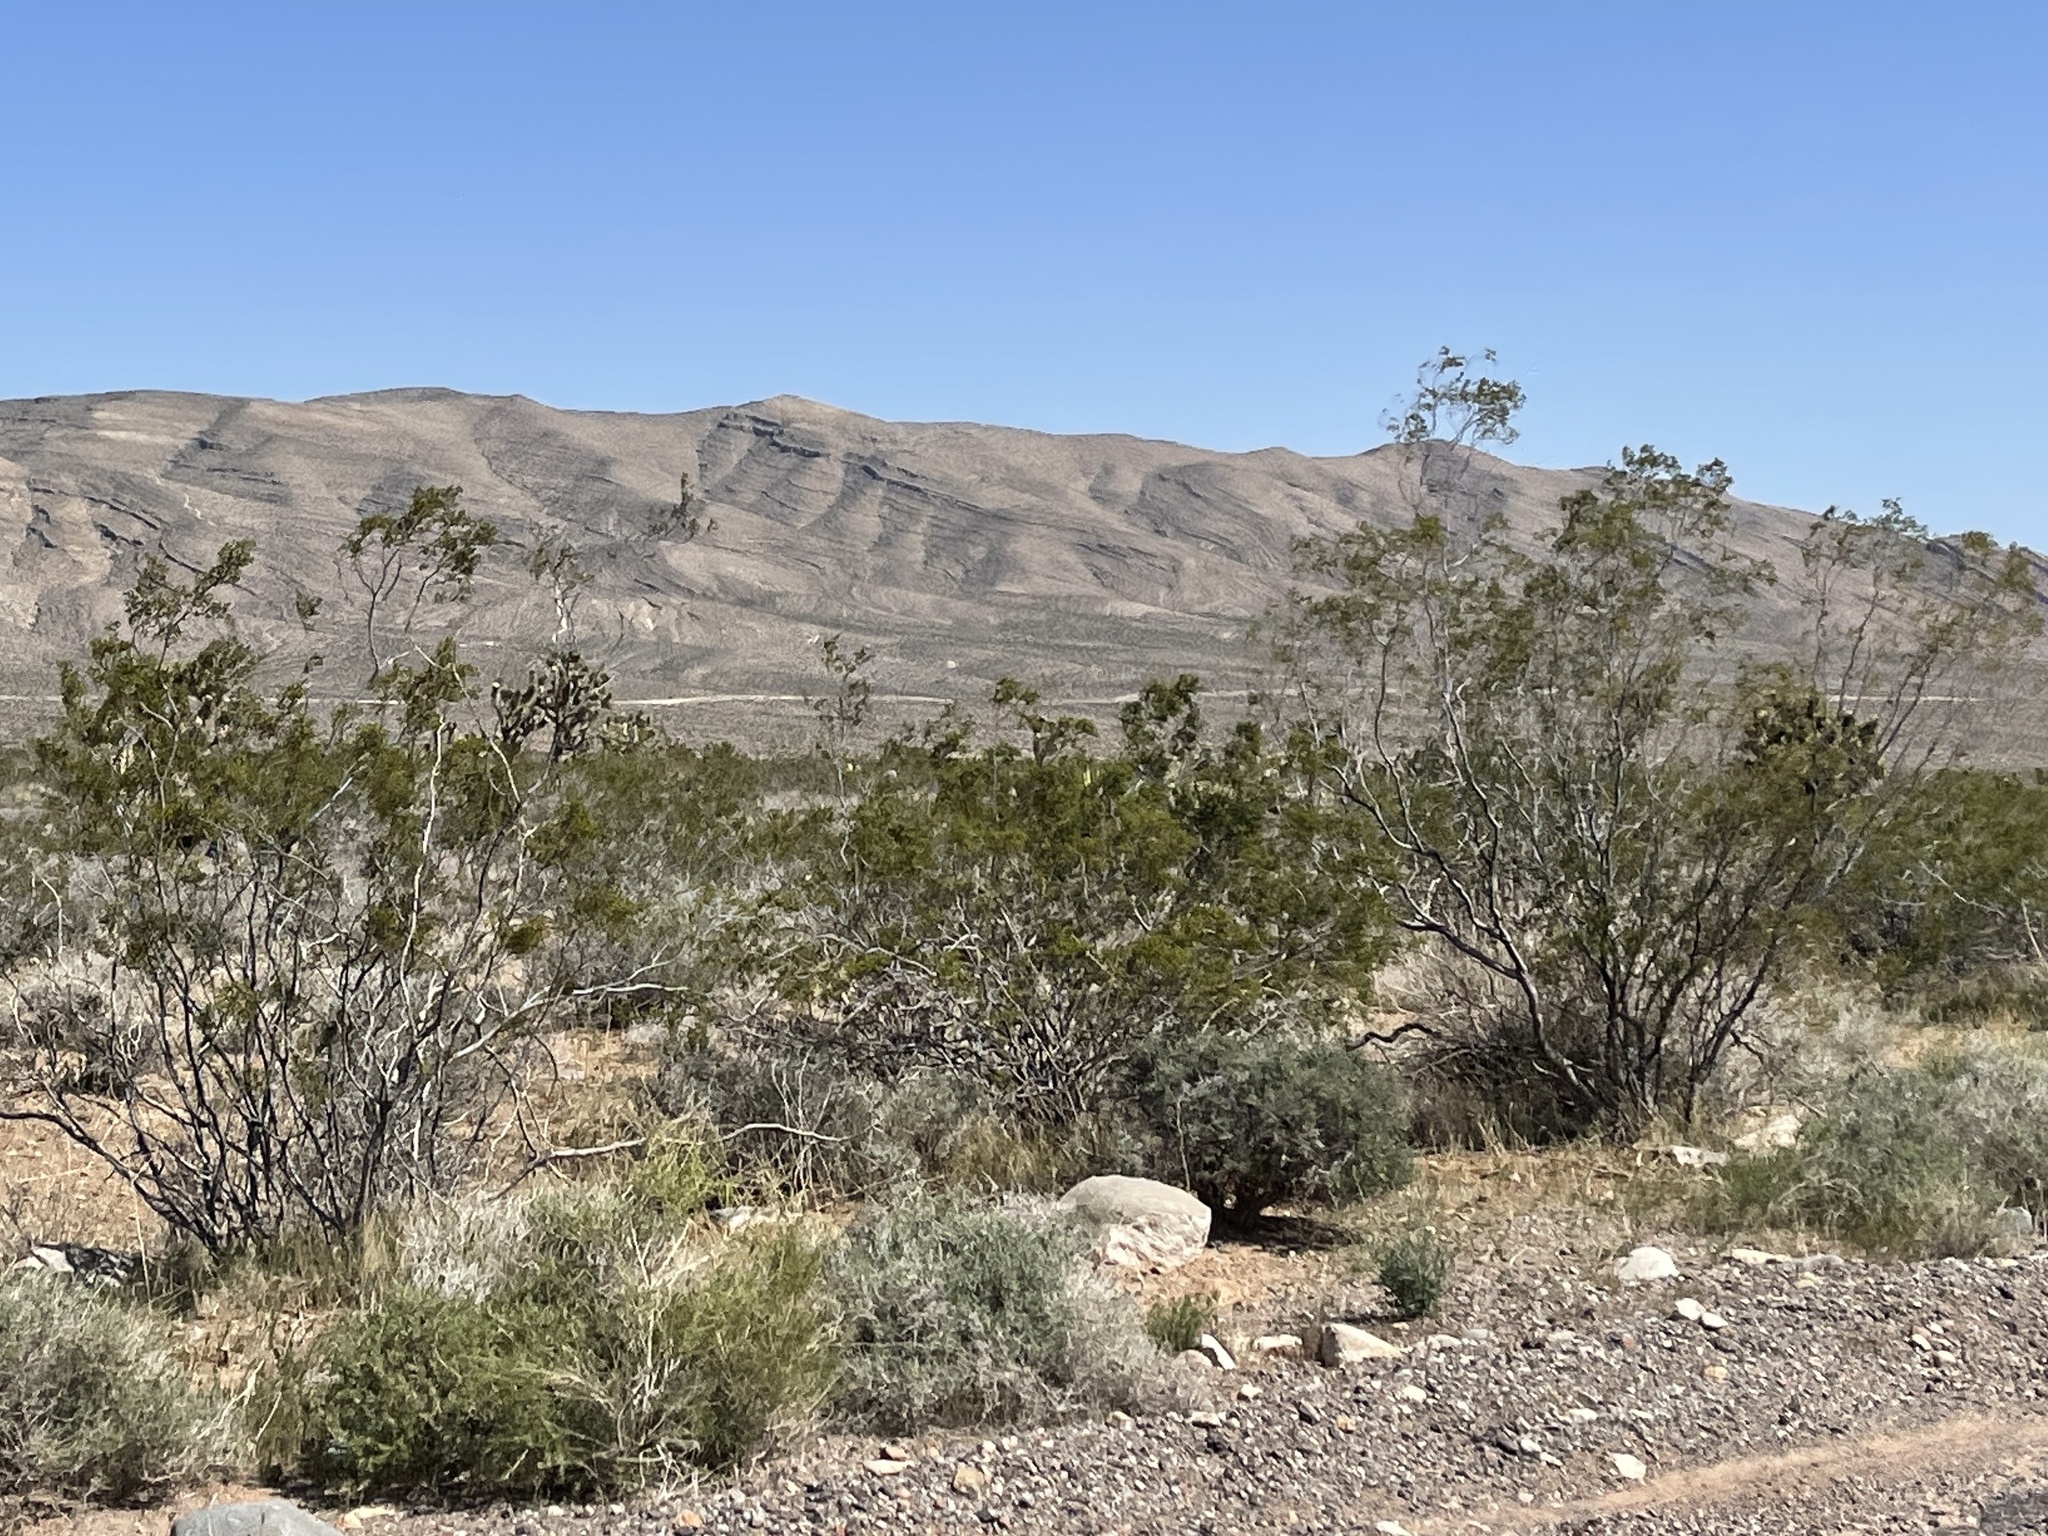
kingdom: Plantae
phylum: Tracheophyta
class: Magnoliopsida
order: Zygophyllales
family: Zygophyllaceae
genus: Larrea
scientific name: Larrea tridentata
